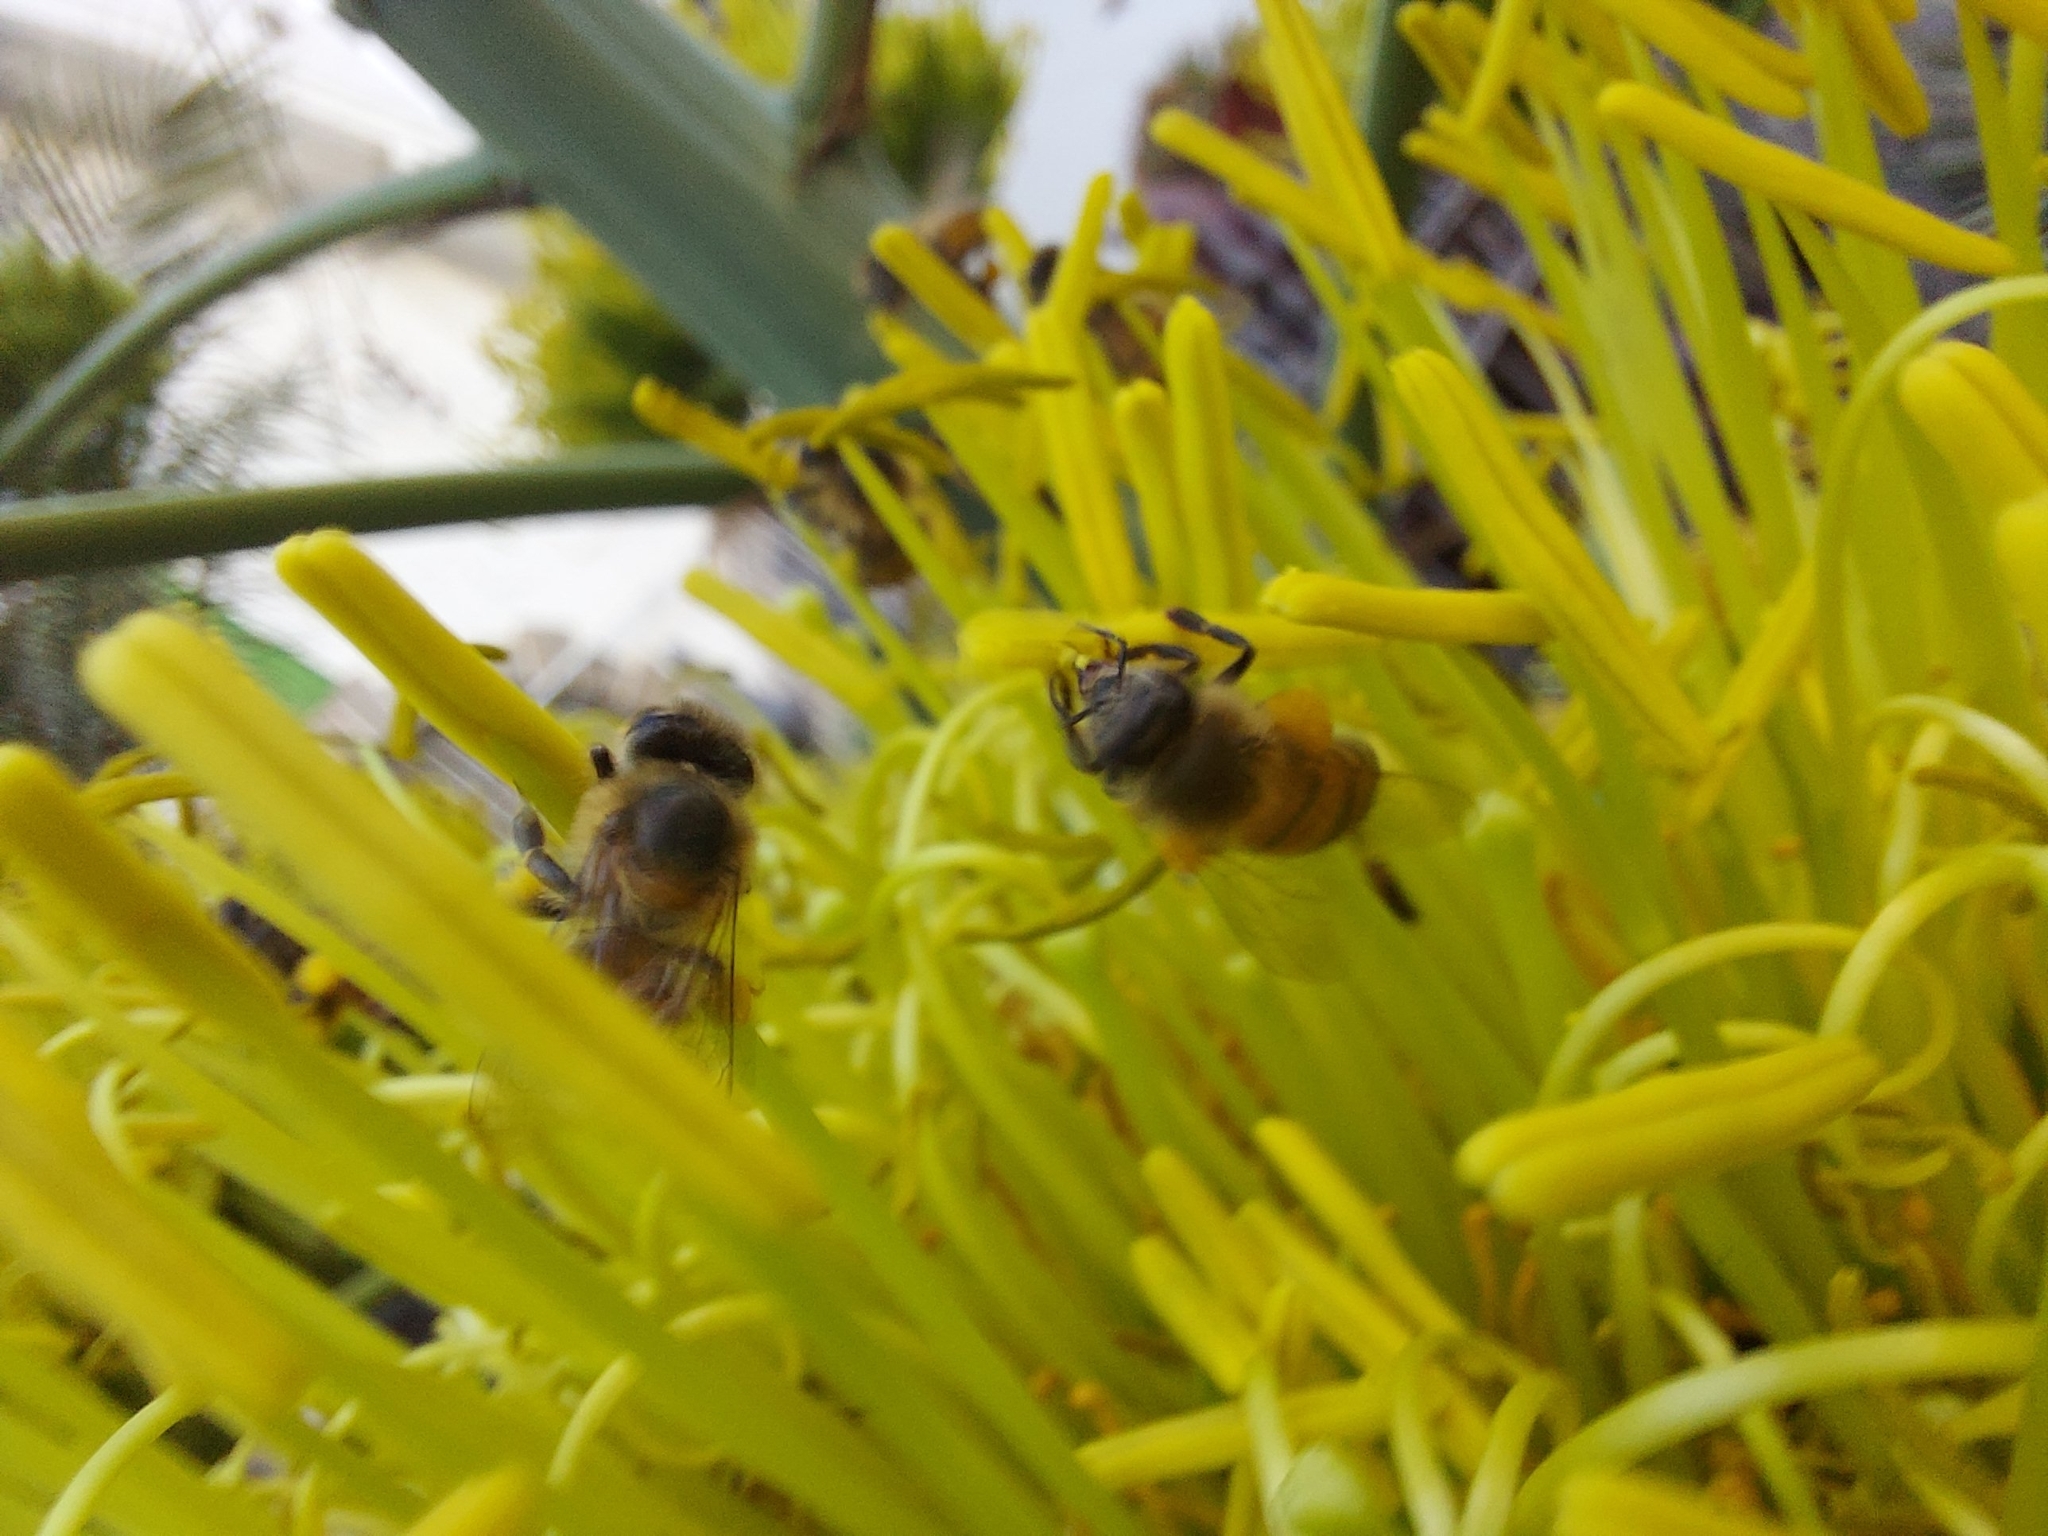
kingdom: Animalia
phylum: Arthropoda
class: Insecta
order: Hymenoptera
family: Apidae
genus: Apis
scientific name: Apis mellifera
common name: Honey bee
